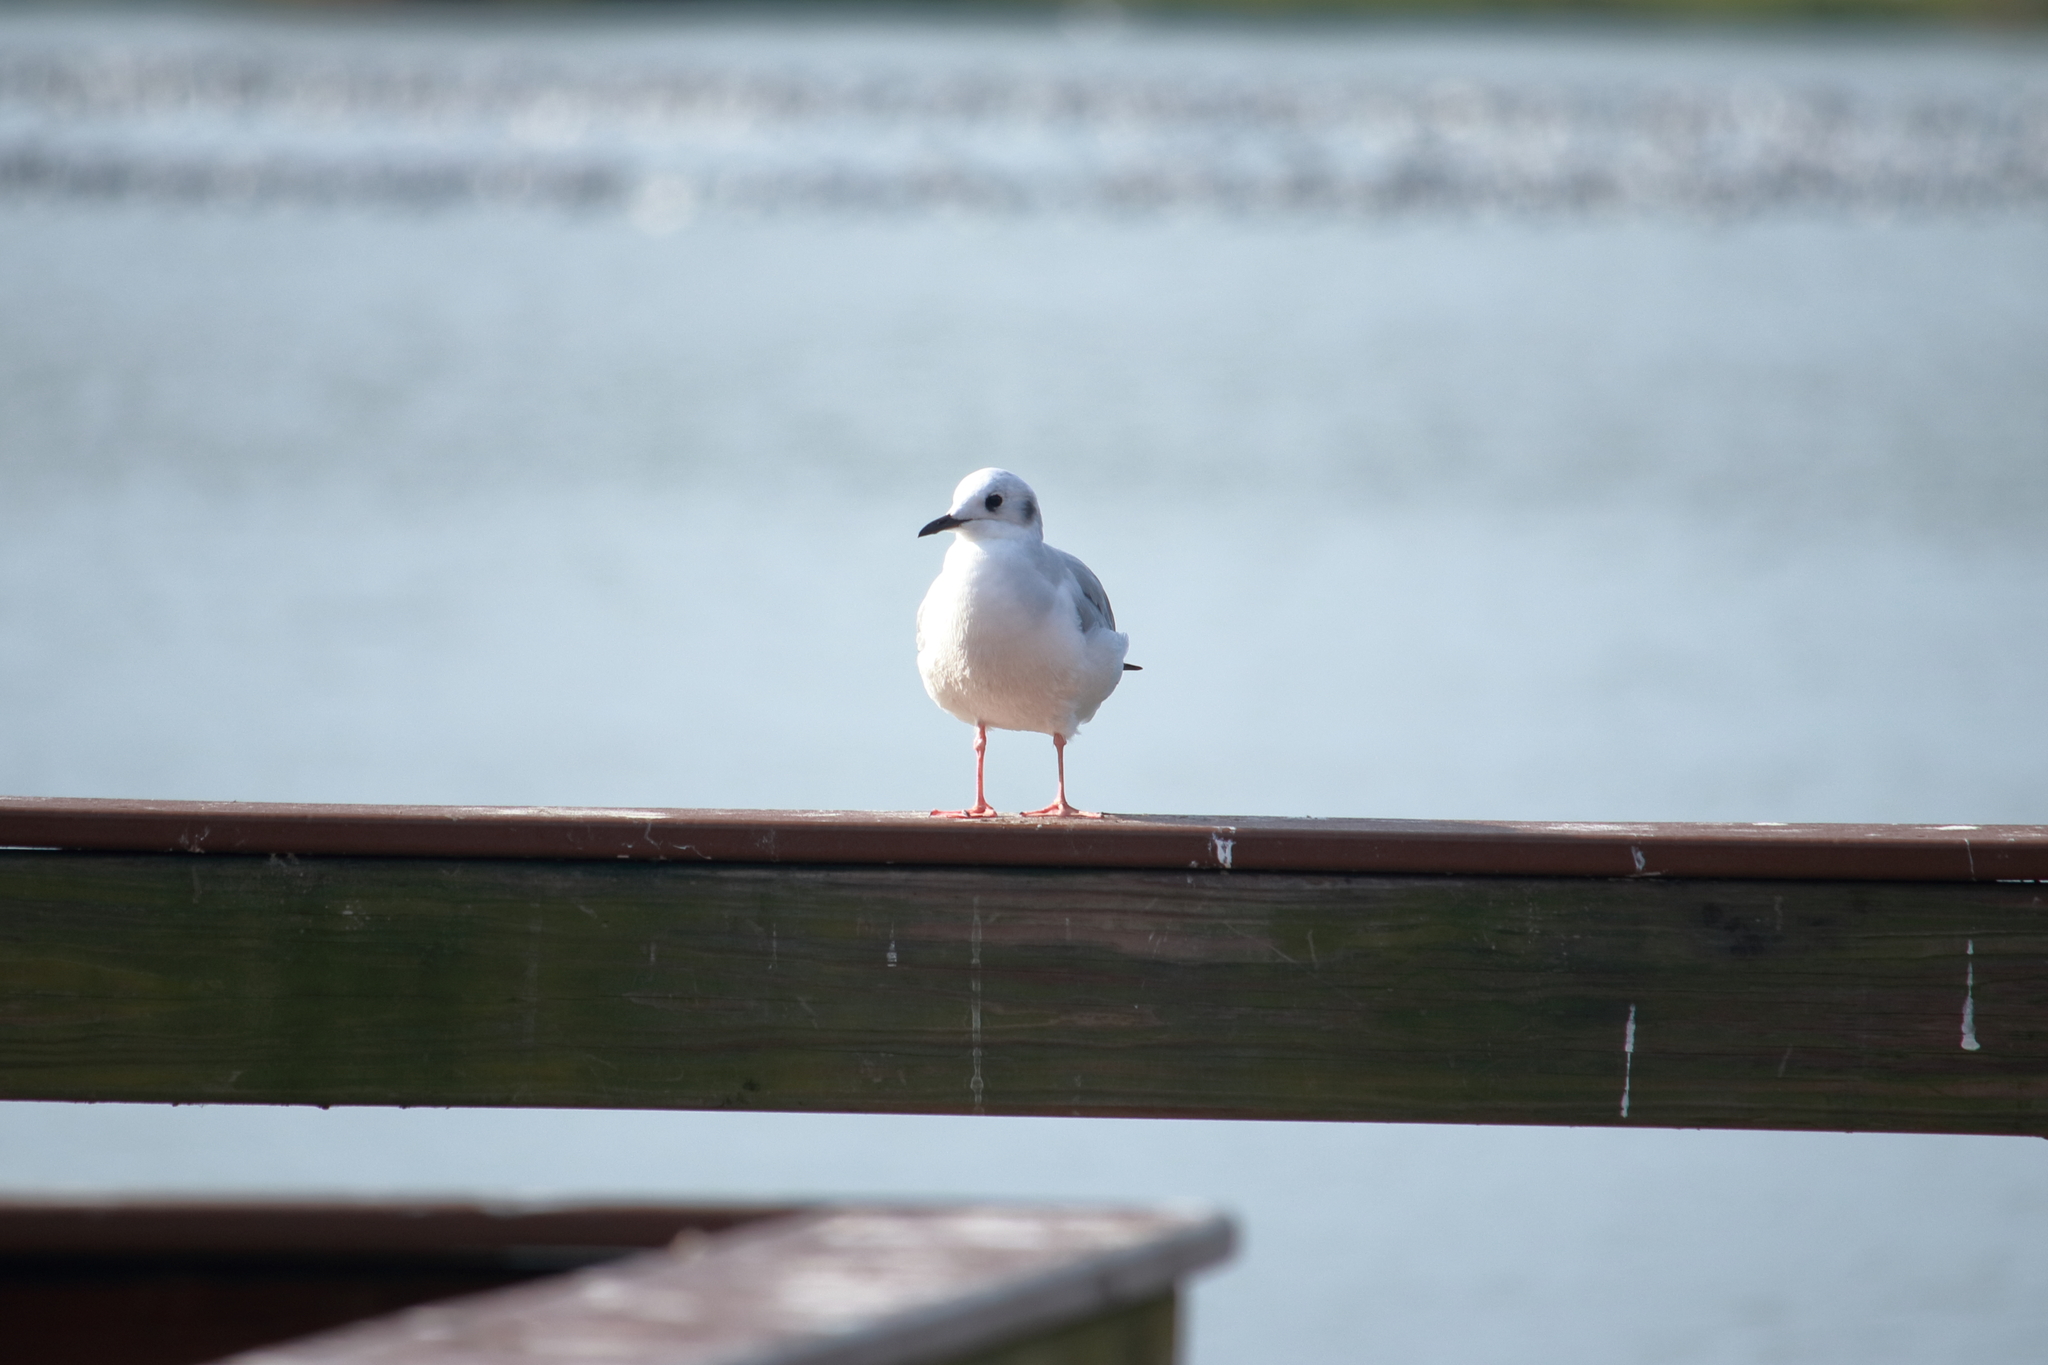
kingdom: Animalia
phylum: Chordata
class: Aves
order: Charadriiformes
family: Laridae
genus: Chroicocephalus
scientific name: Chroicocephalus philadelphia
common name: Bonaparte's gull
